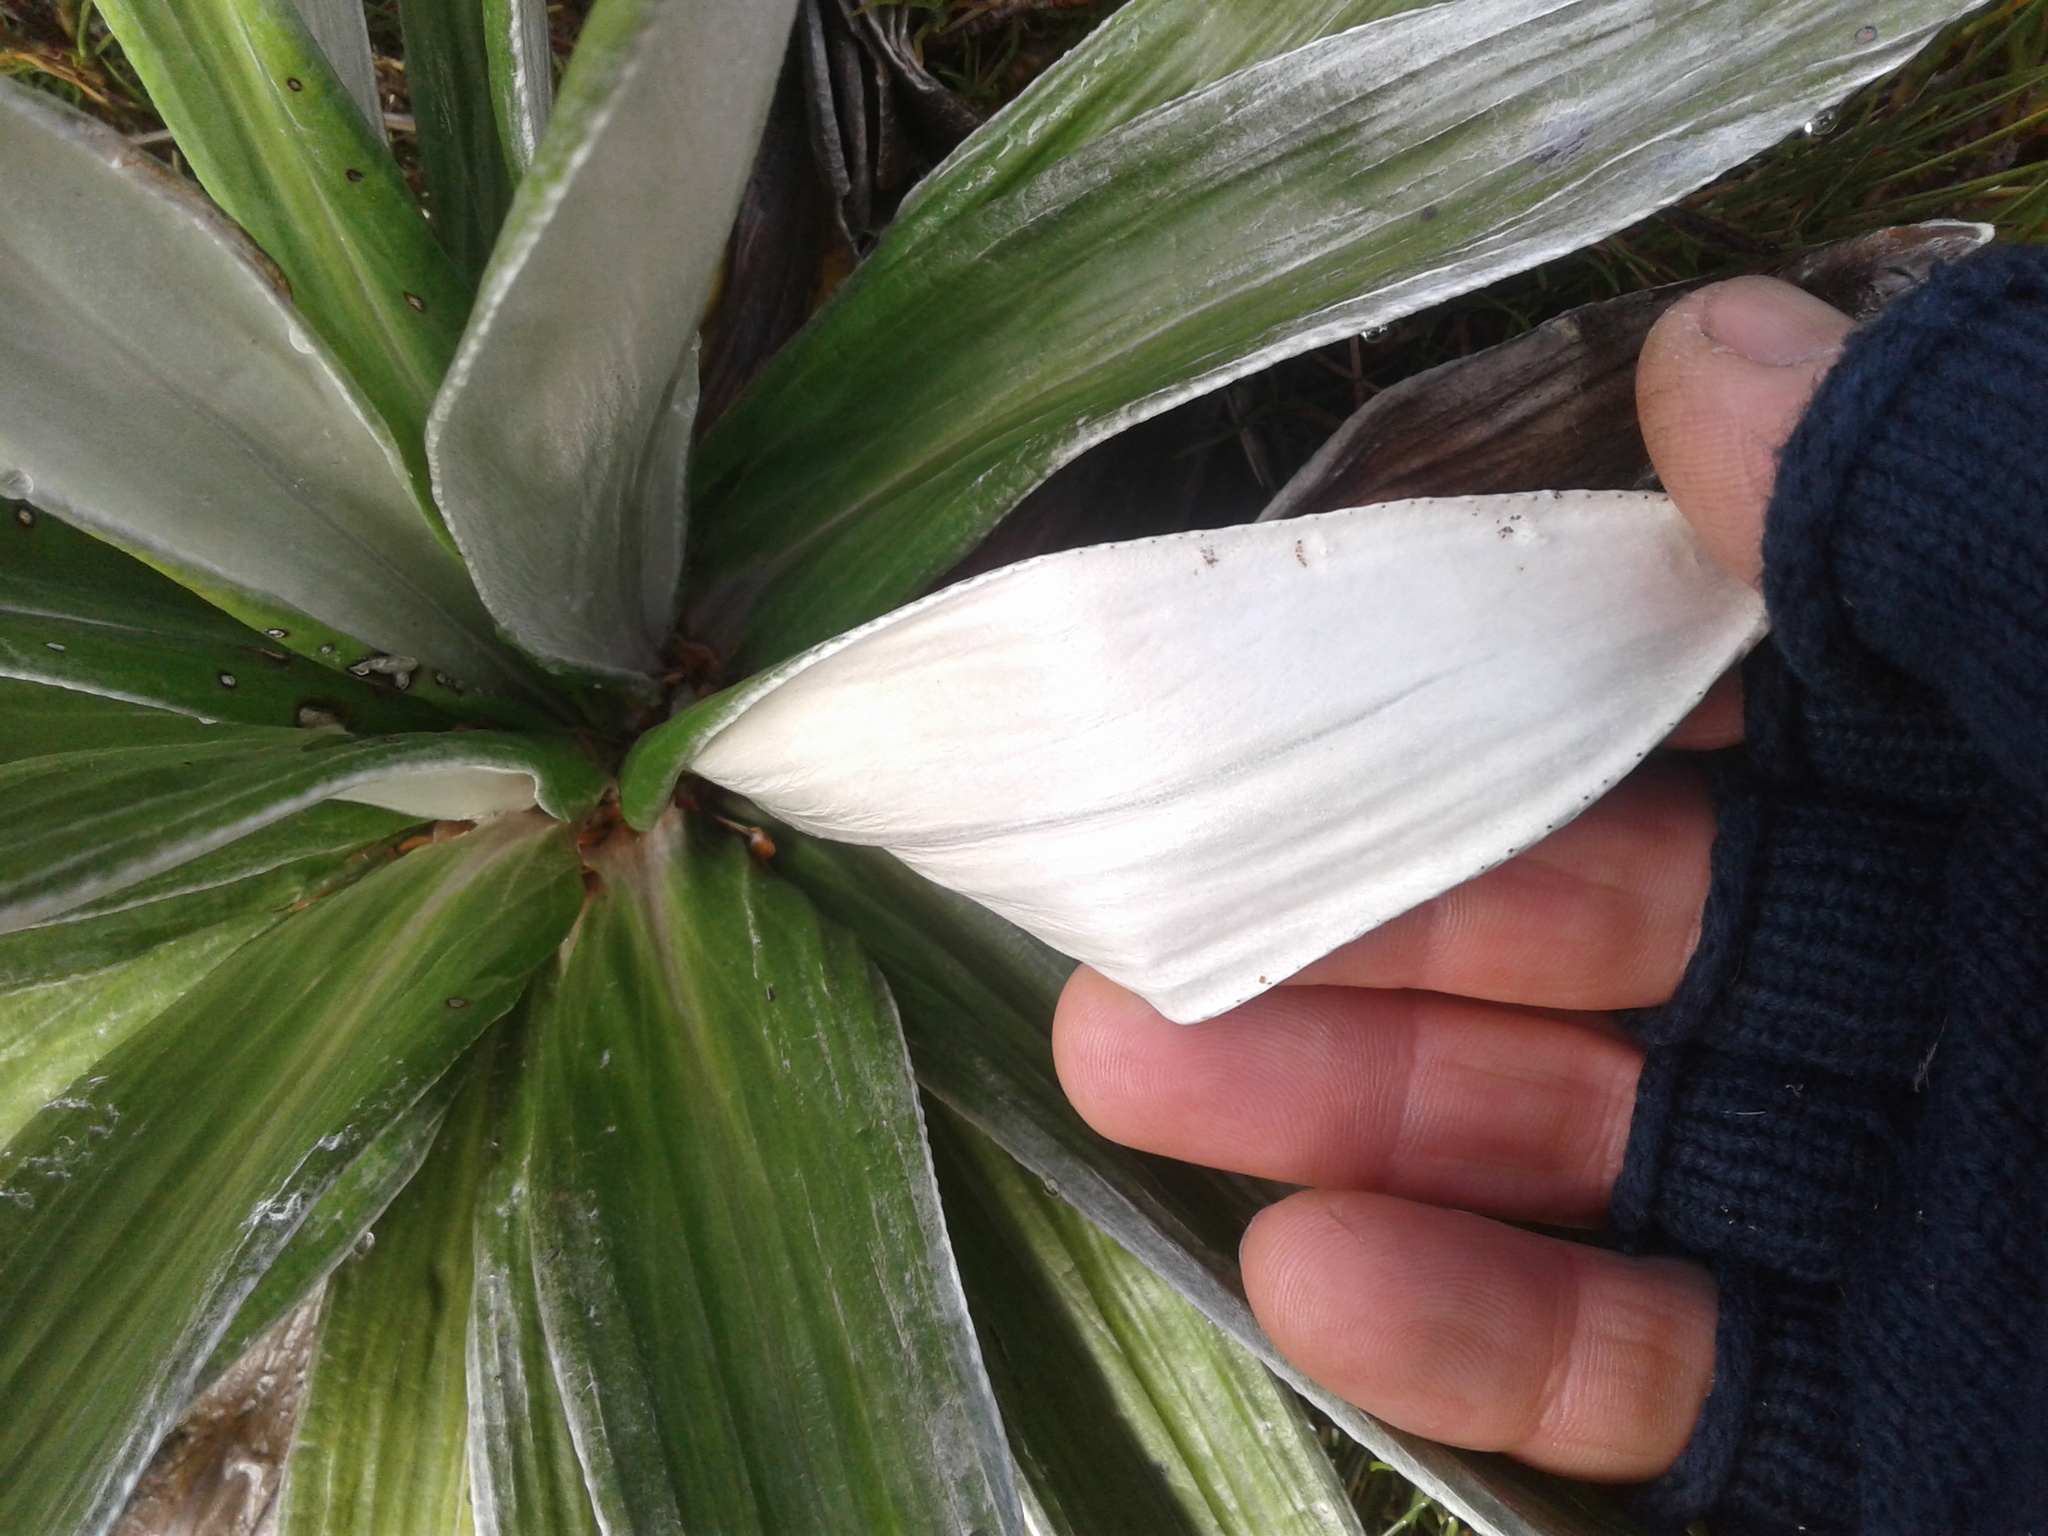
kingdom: Plantae
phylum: Tracheophyta
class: Magnoliopsida
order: Asterales
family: Asteraceae
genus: Celmisia
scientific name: Celmisia semicordata
